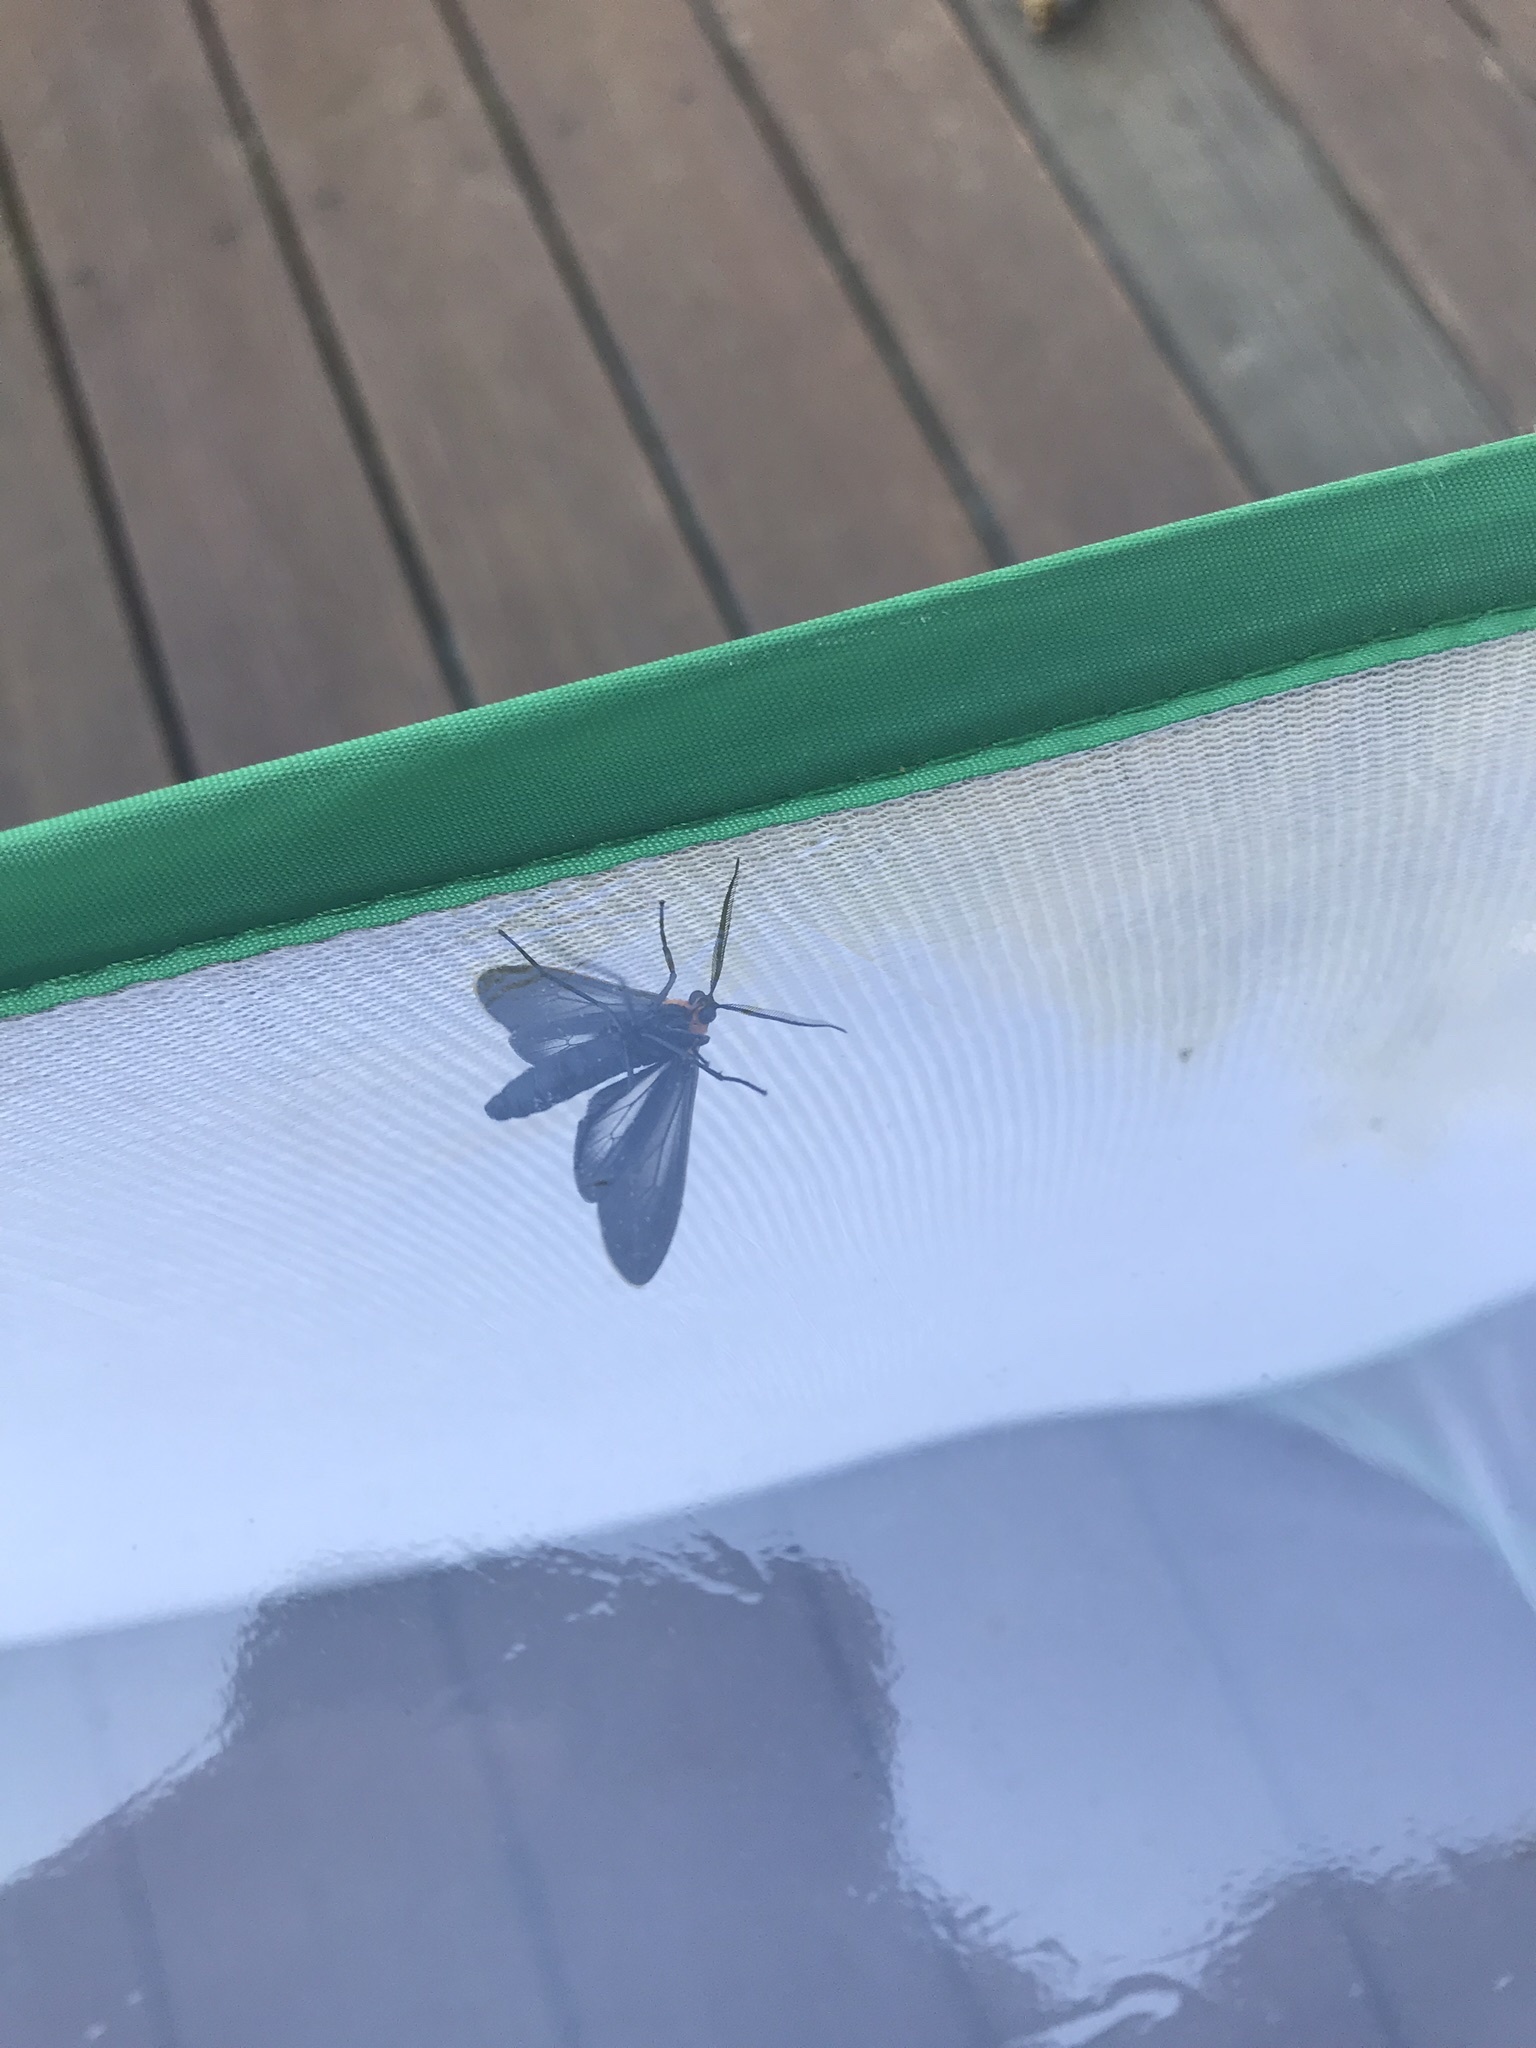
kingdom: Animalia
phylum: Arthropoda
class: Insecta
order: Lepidoptera
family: Erebidae
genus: Cisseps
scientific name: Cisseps fulvicollis
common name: Yellow-collared scape moth
